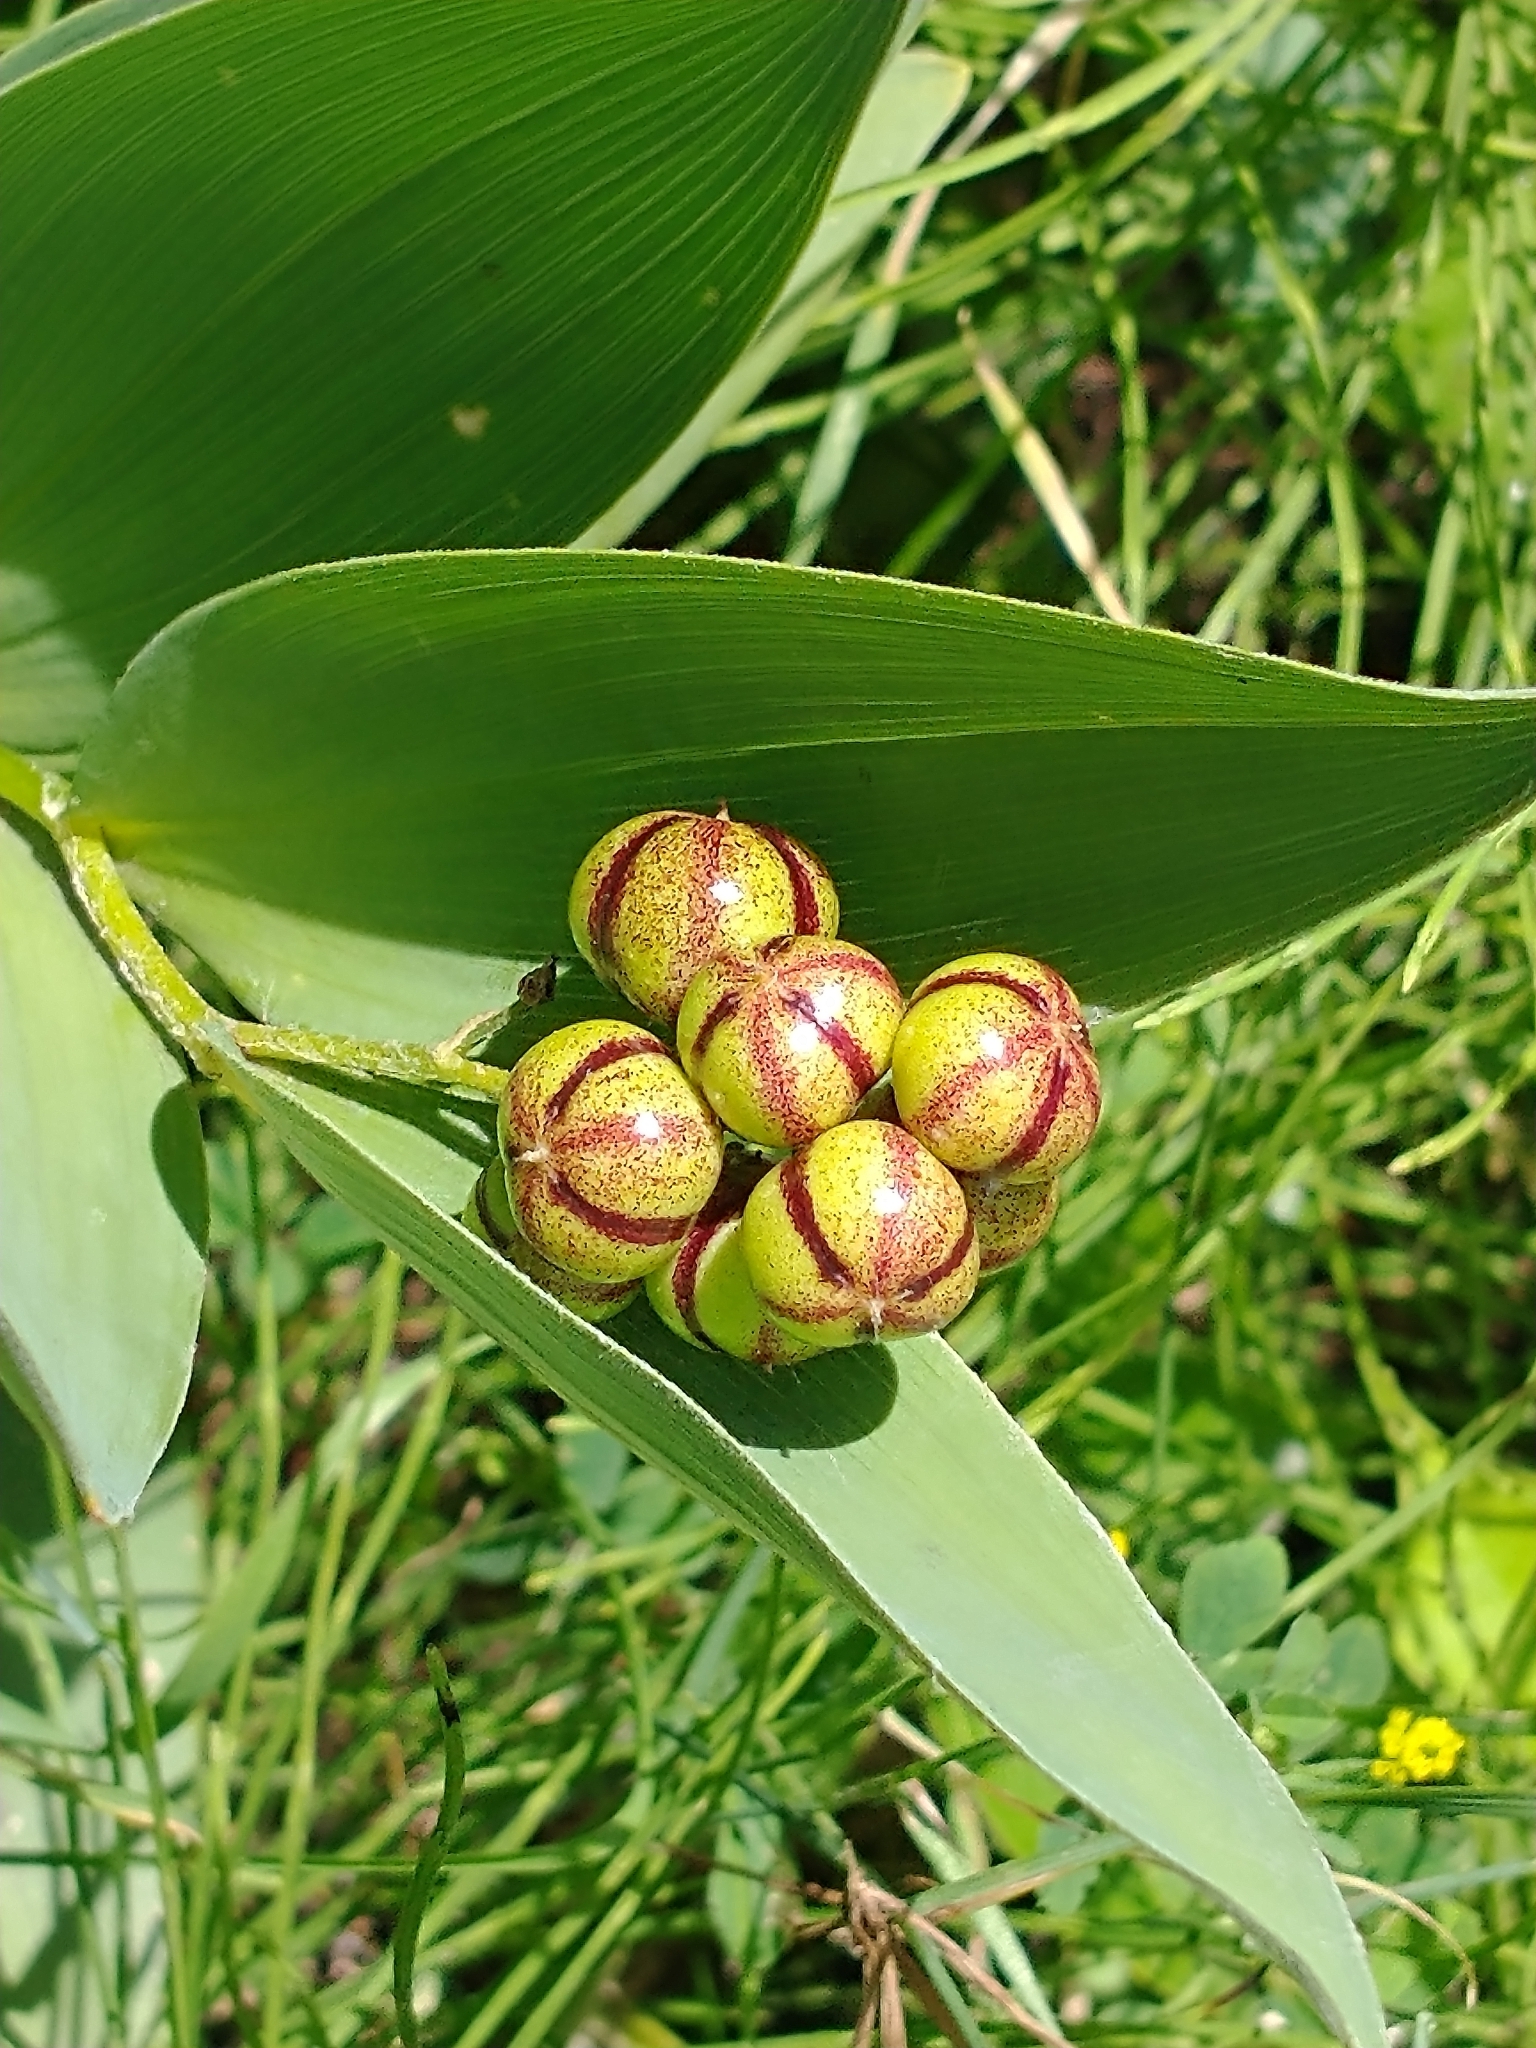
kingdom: Plantae
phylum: Tracheophyta
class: Liliopsida
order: Asparagales
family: Asparagaceae
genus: Maianthemum
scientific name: Maianthemum stellatum
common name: Little false solomon's seal
